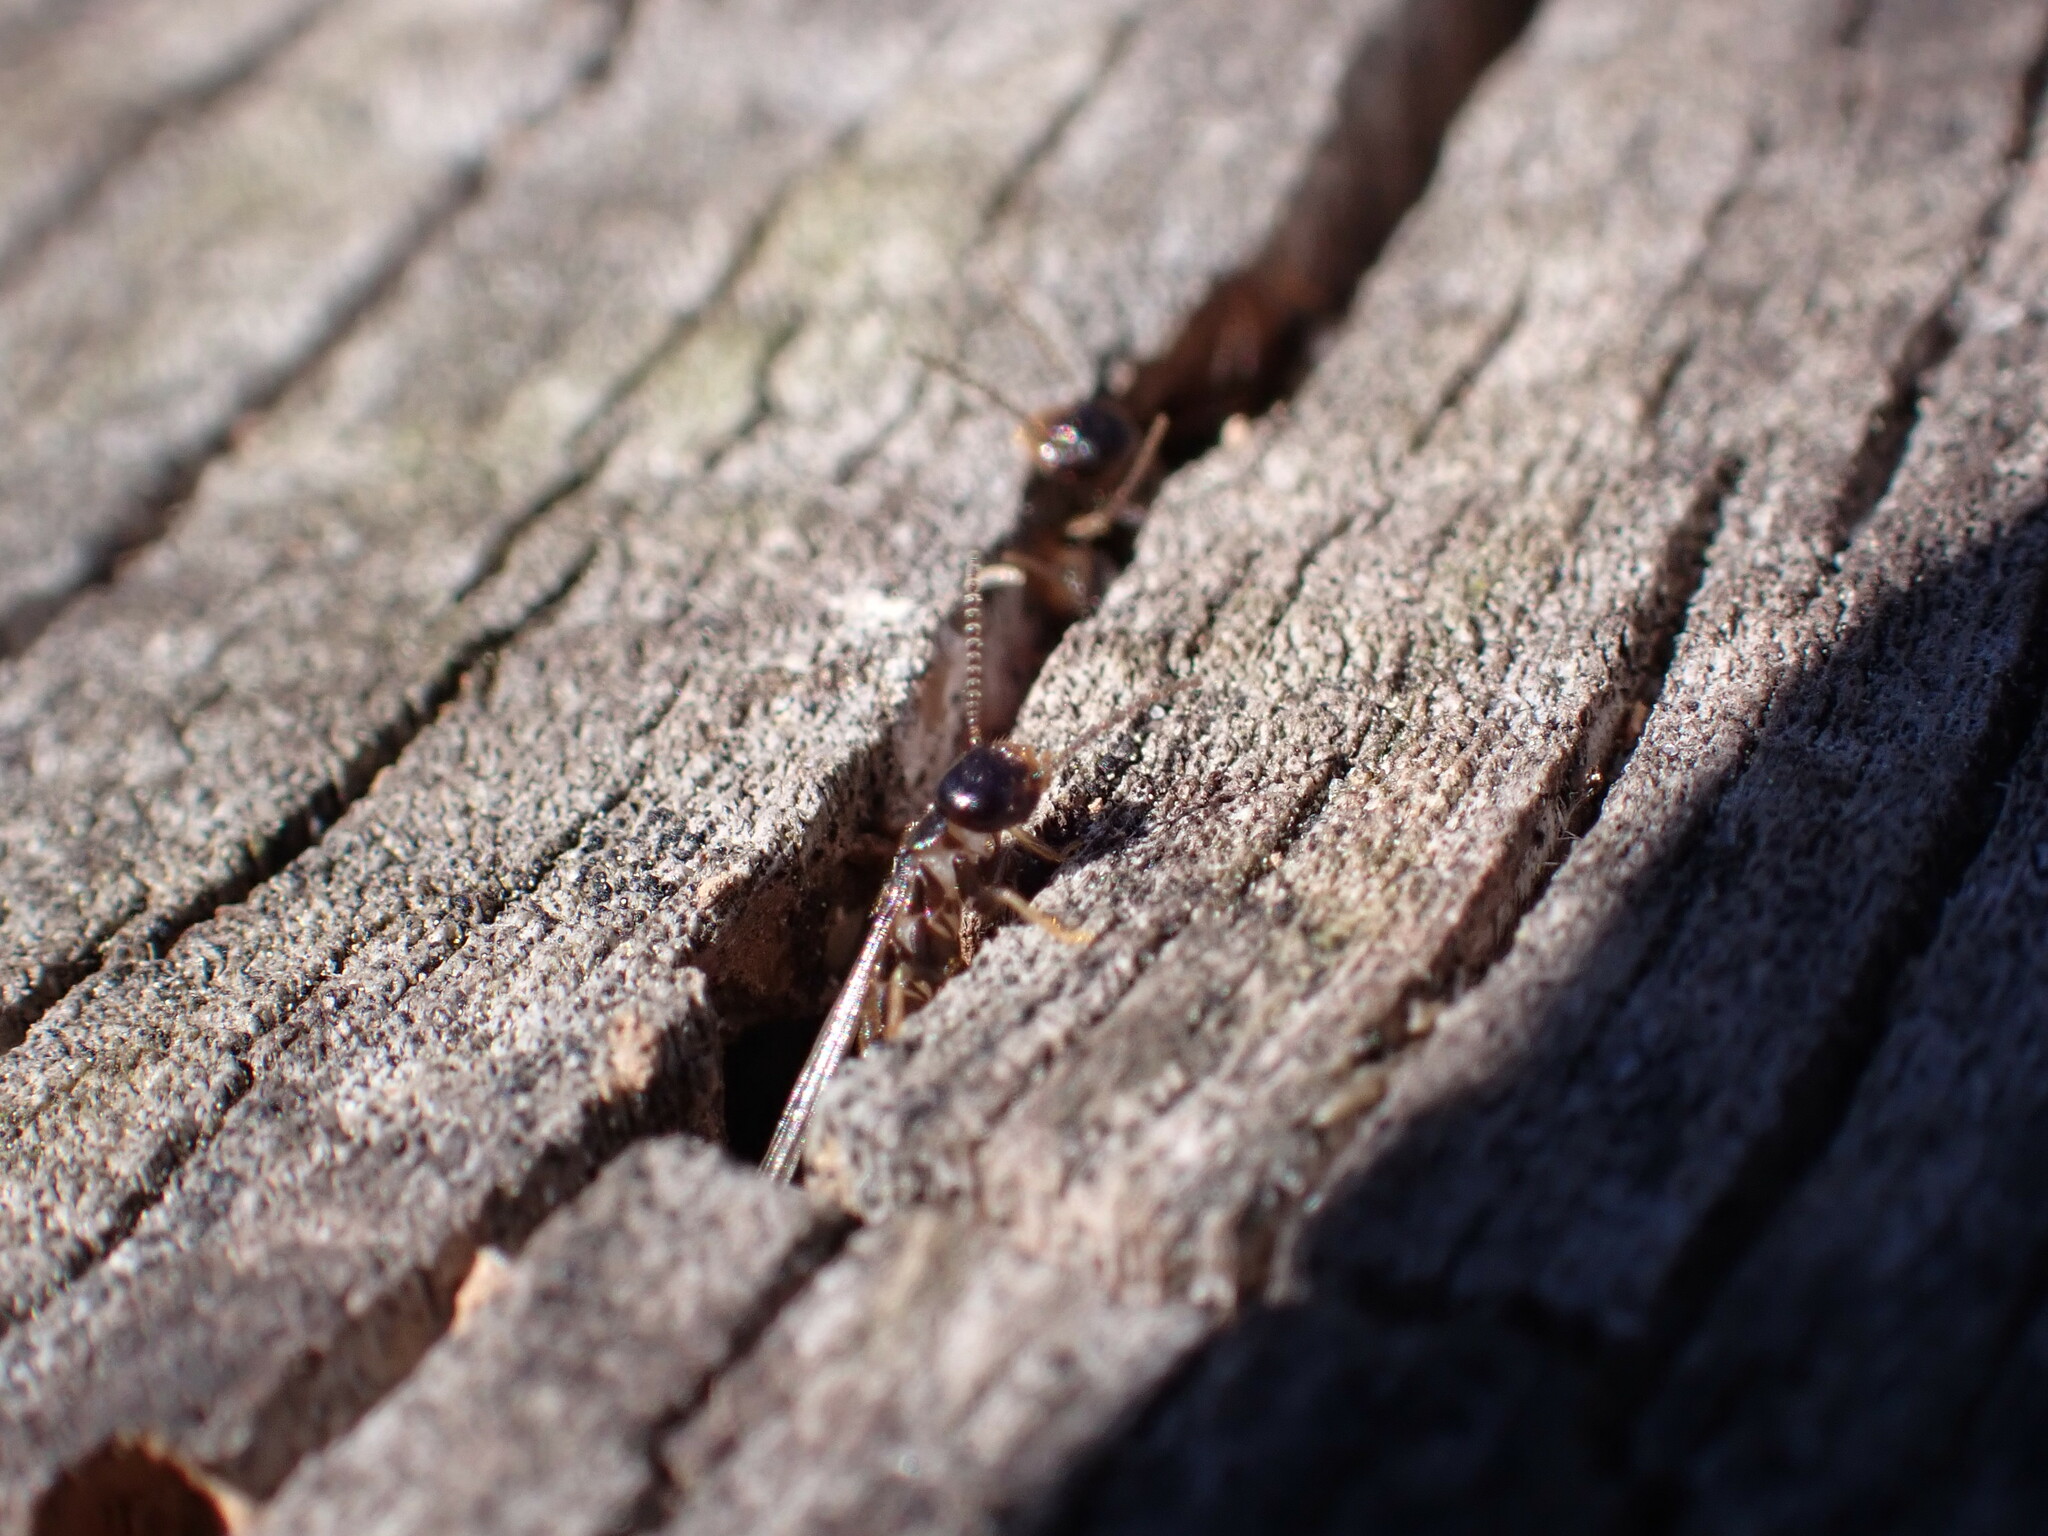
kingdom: Animalia
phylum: Arthropoda
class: Insecta
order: Blattodea
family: Rhinotermitidae
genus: Reticulitermes
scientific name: Reticulitermes flavipes
